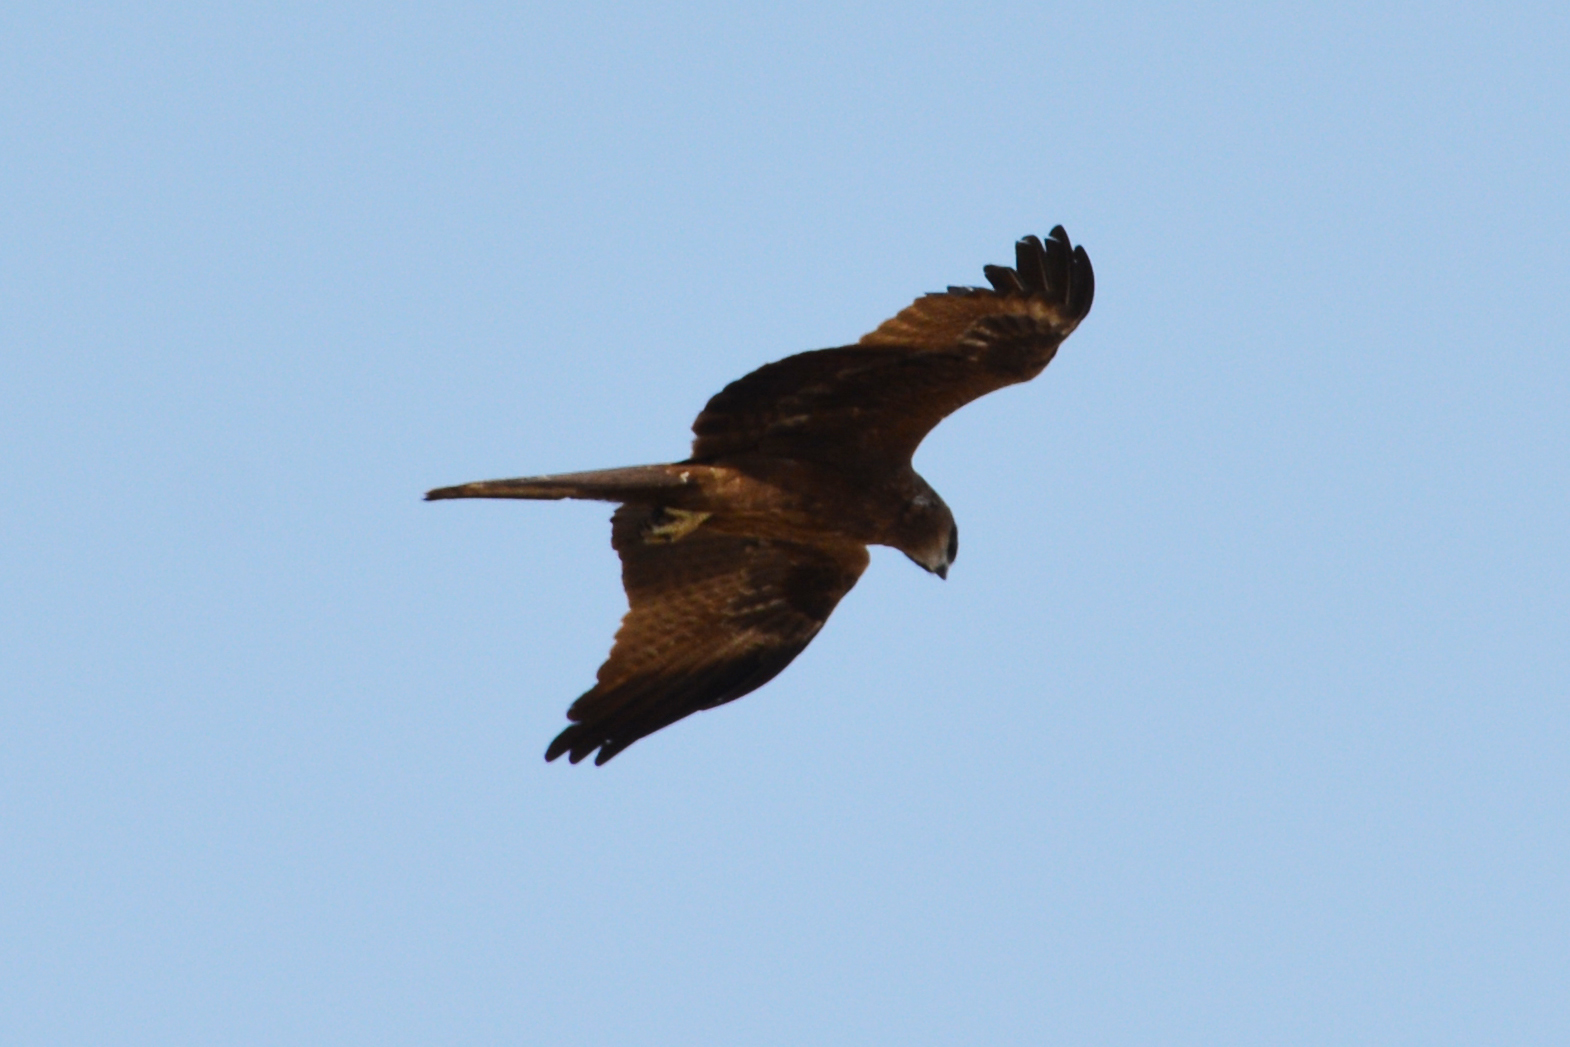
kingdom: Animalia
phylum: Chordata
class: Aves
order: Accipitriformes
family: Accipitridae
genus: Milvus
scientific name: Milvus migrans
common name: Black kite
